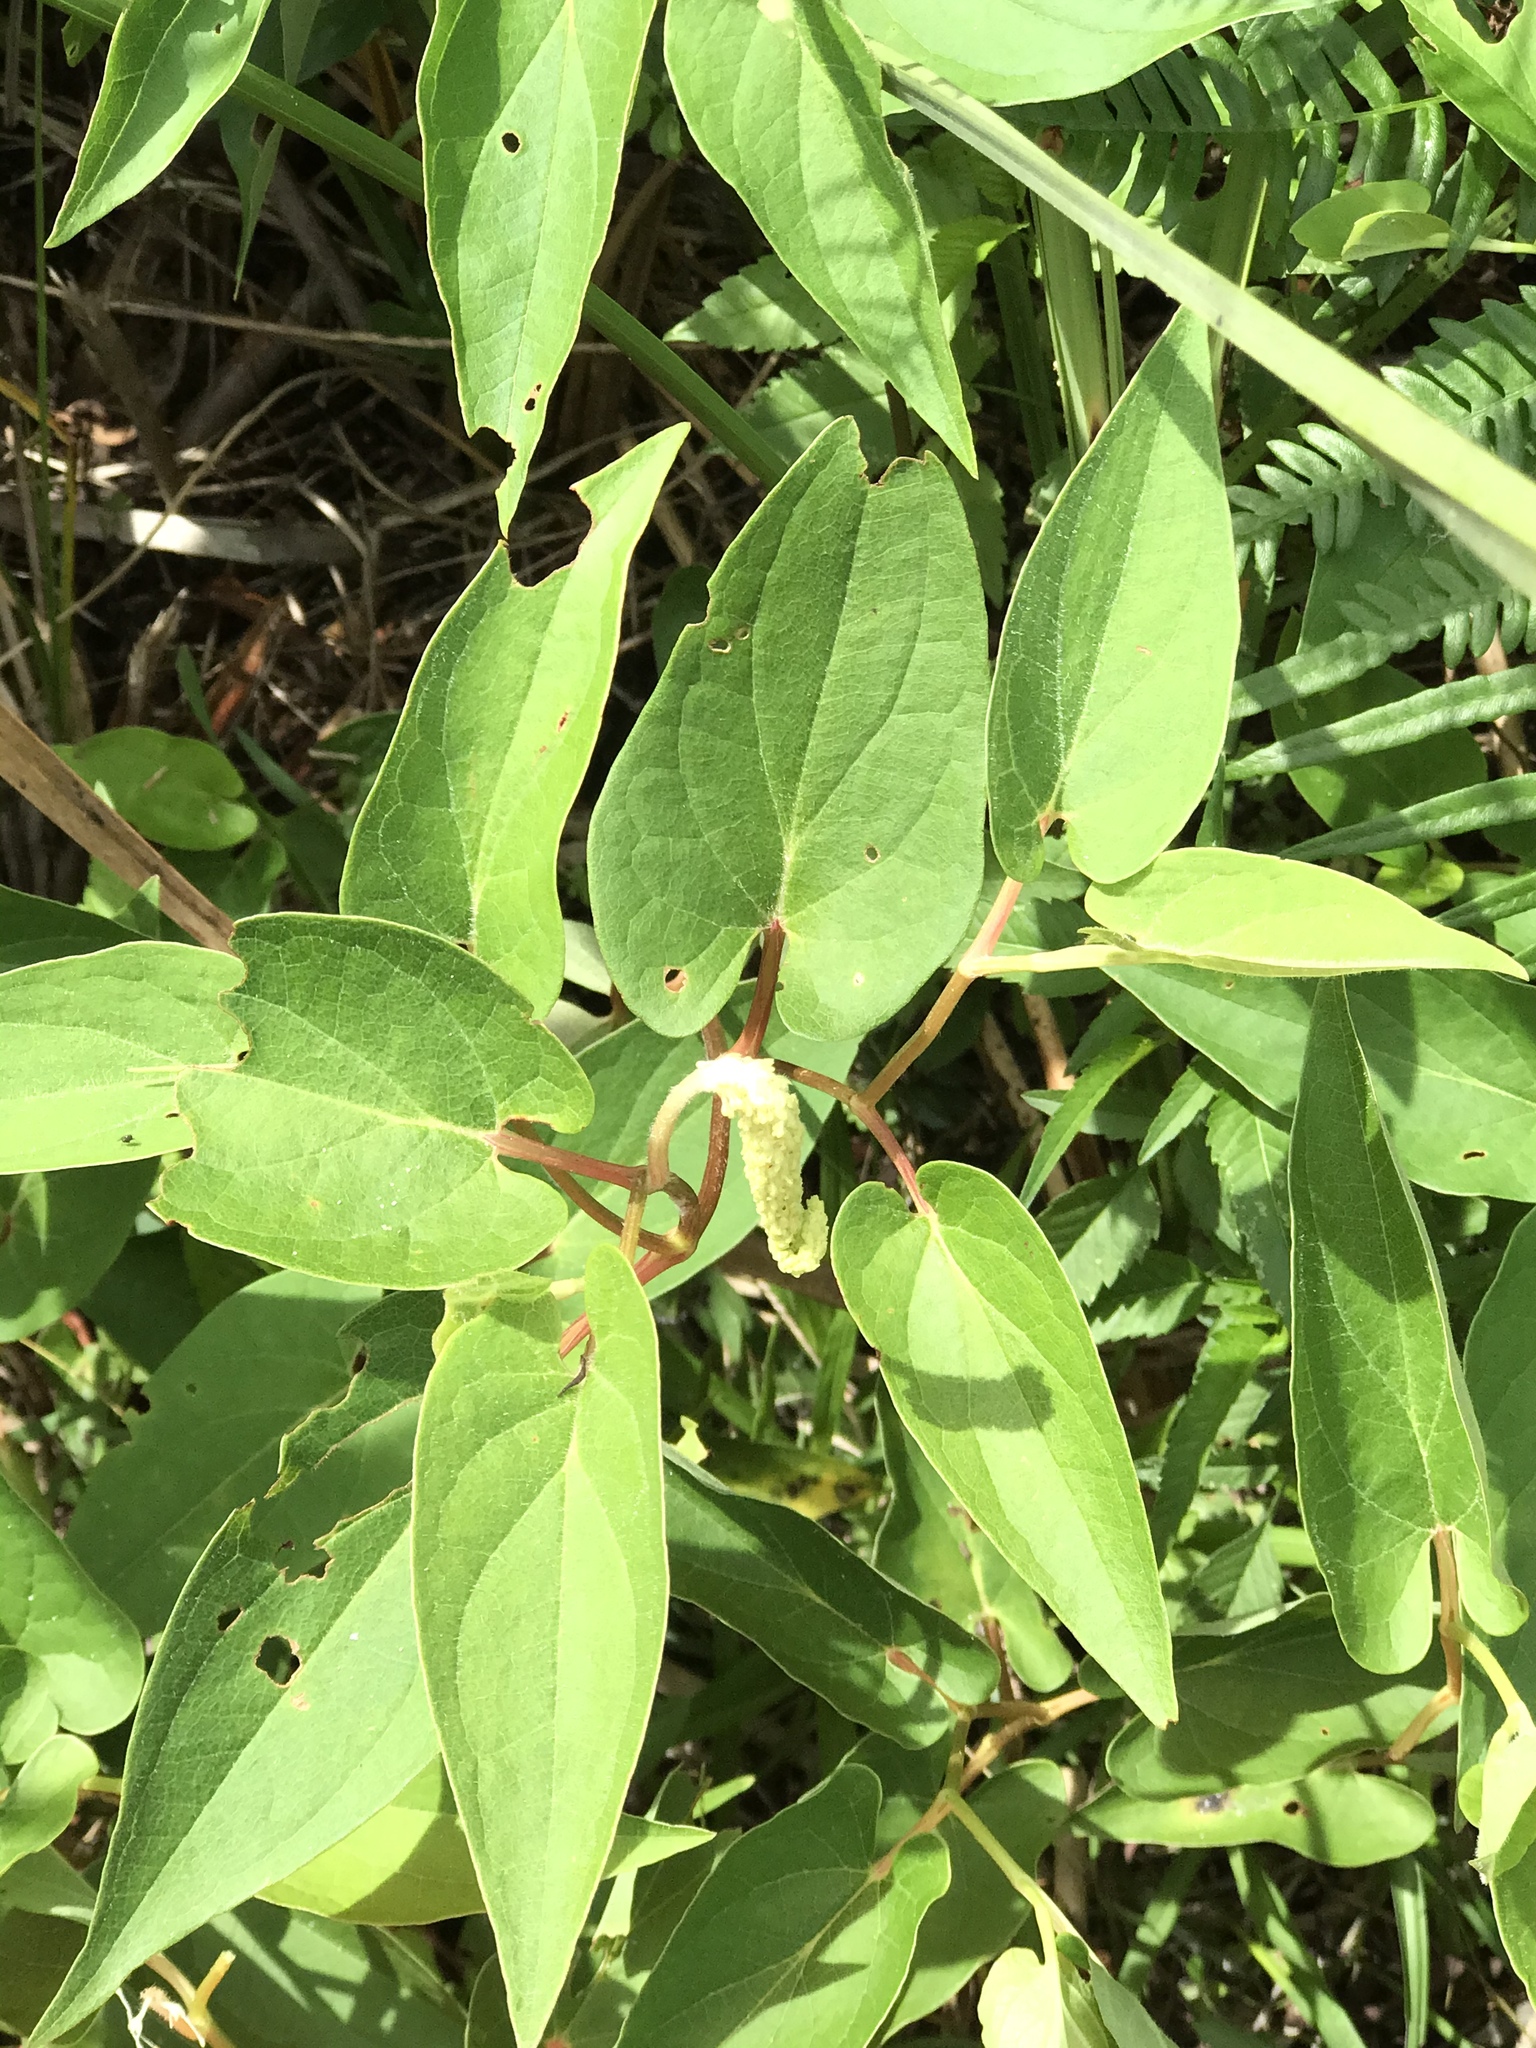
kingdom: Plantae
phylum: Tracheophyta
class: Magnoliopsida
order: Piperales
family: Saururaceae
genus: Saururus
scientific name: Saururus cernuus
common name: Lizard's-tail
